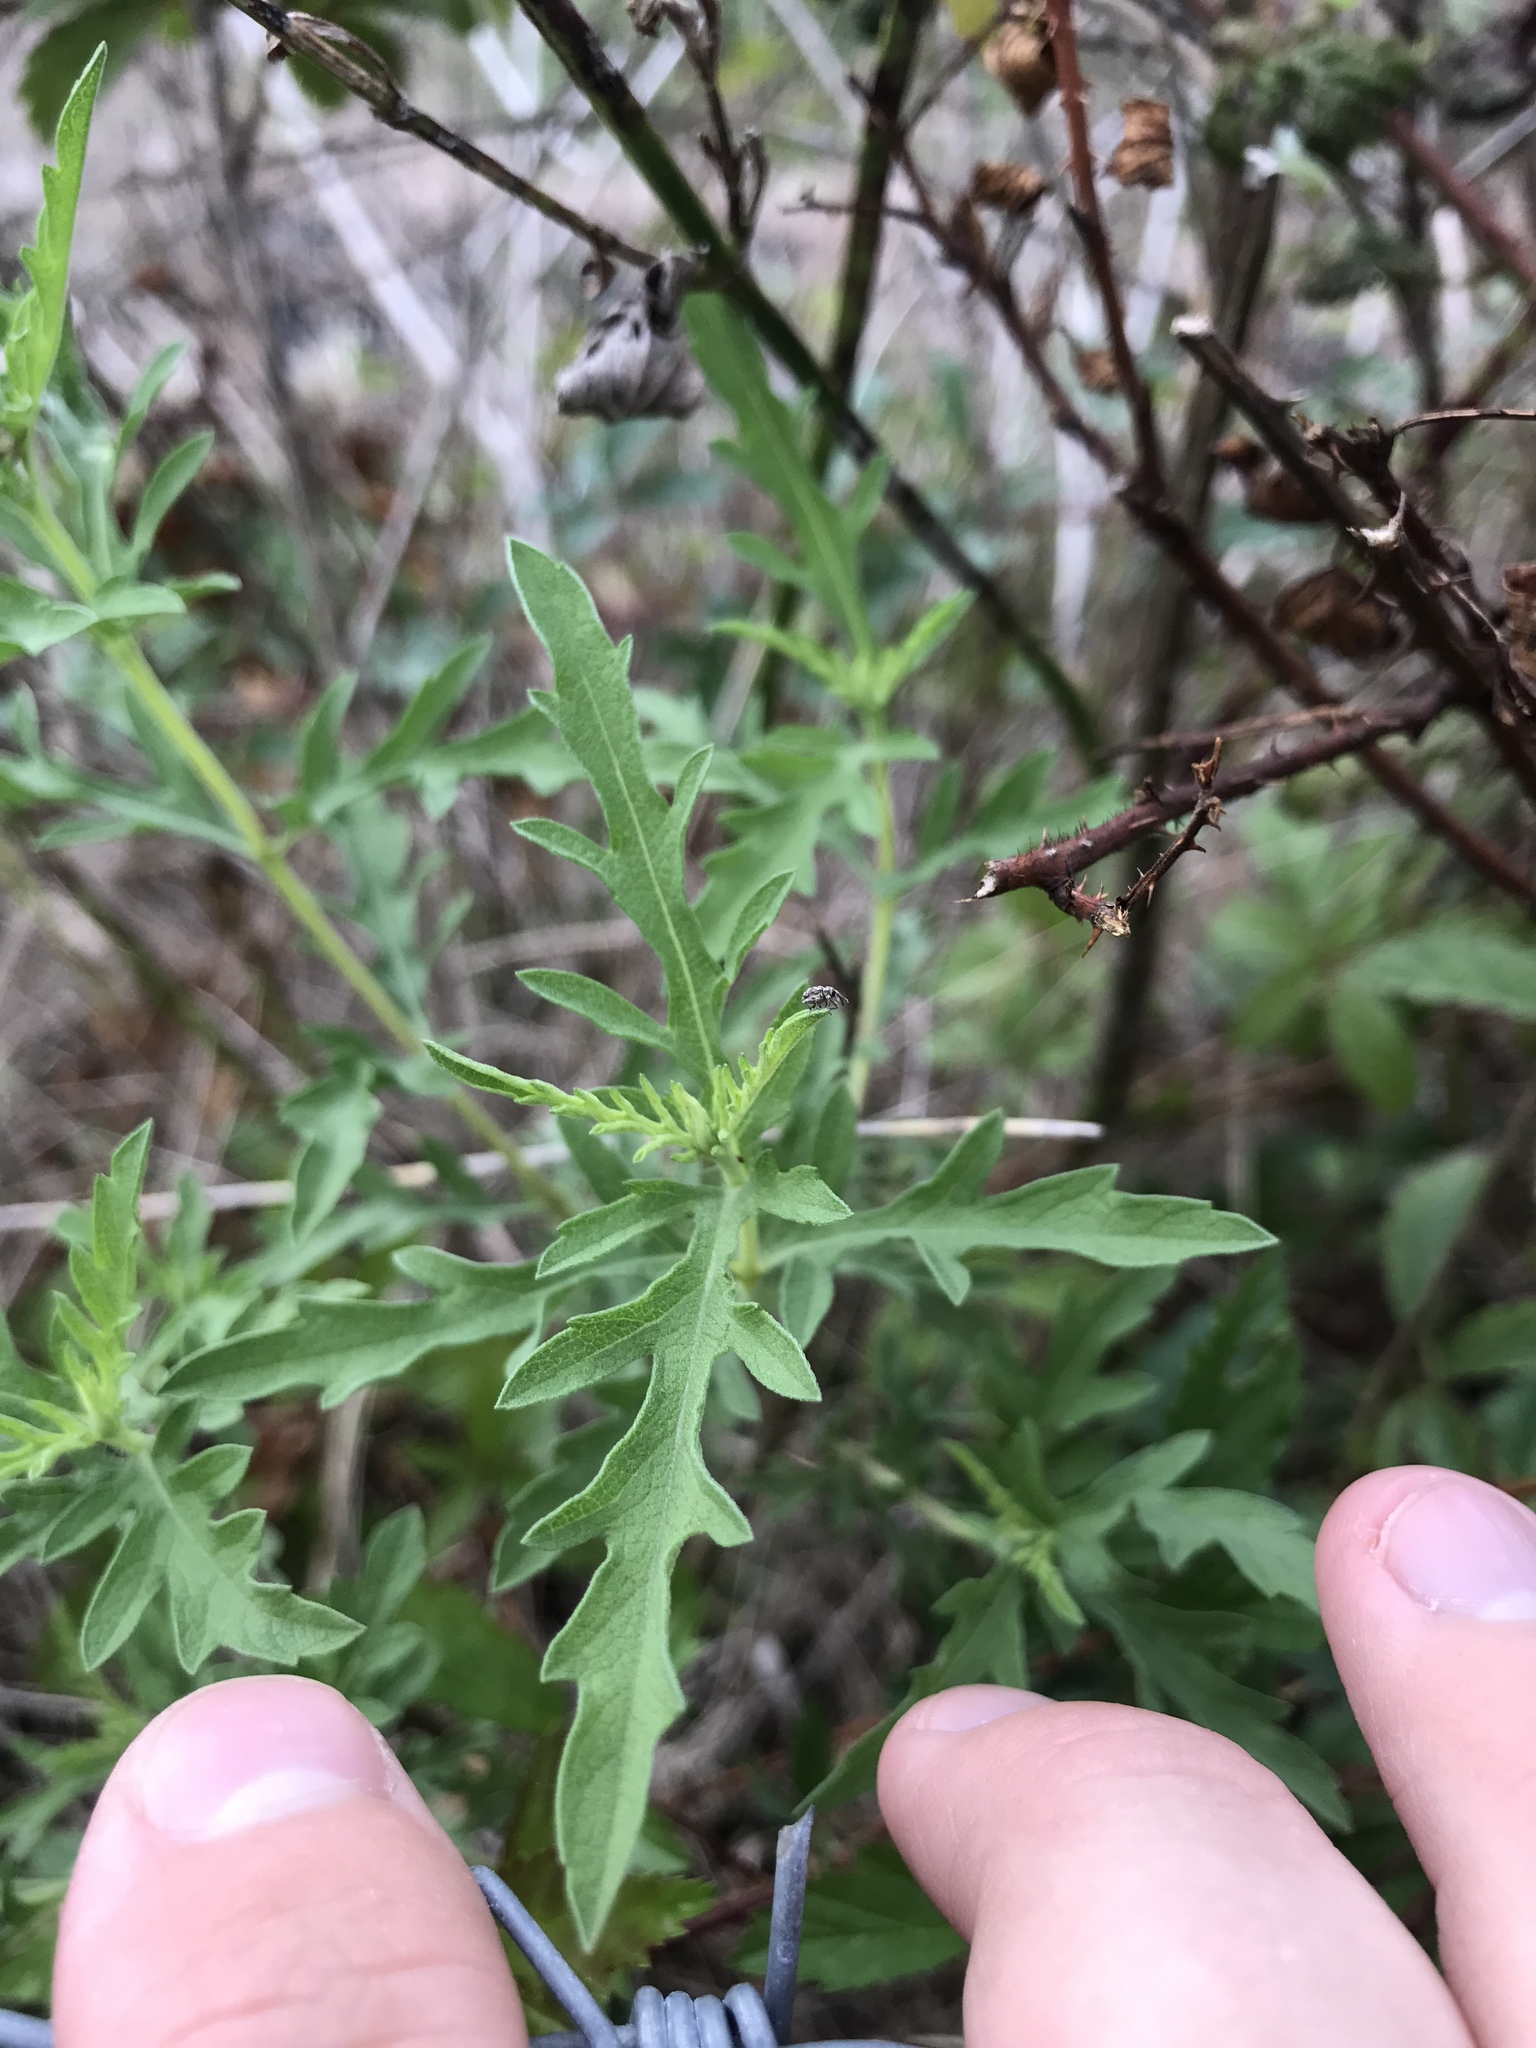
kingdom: Plantae
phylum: Tracheophyta
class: Magnoliopsida
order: Asterales
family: Asteraceae
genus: Ambrosia
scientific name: Ambrosia psilostachya
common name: Perennial ragweed
